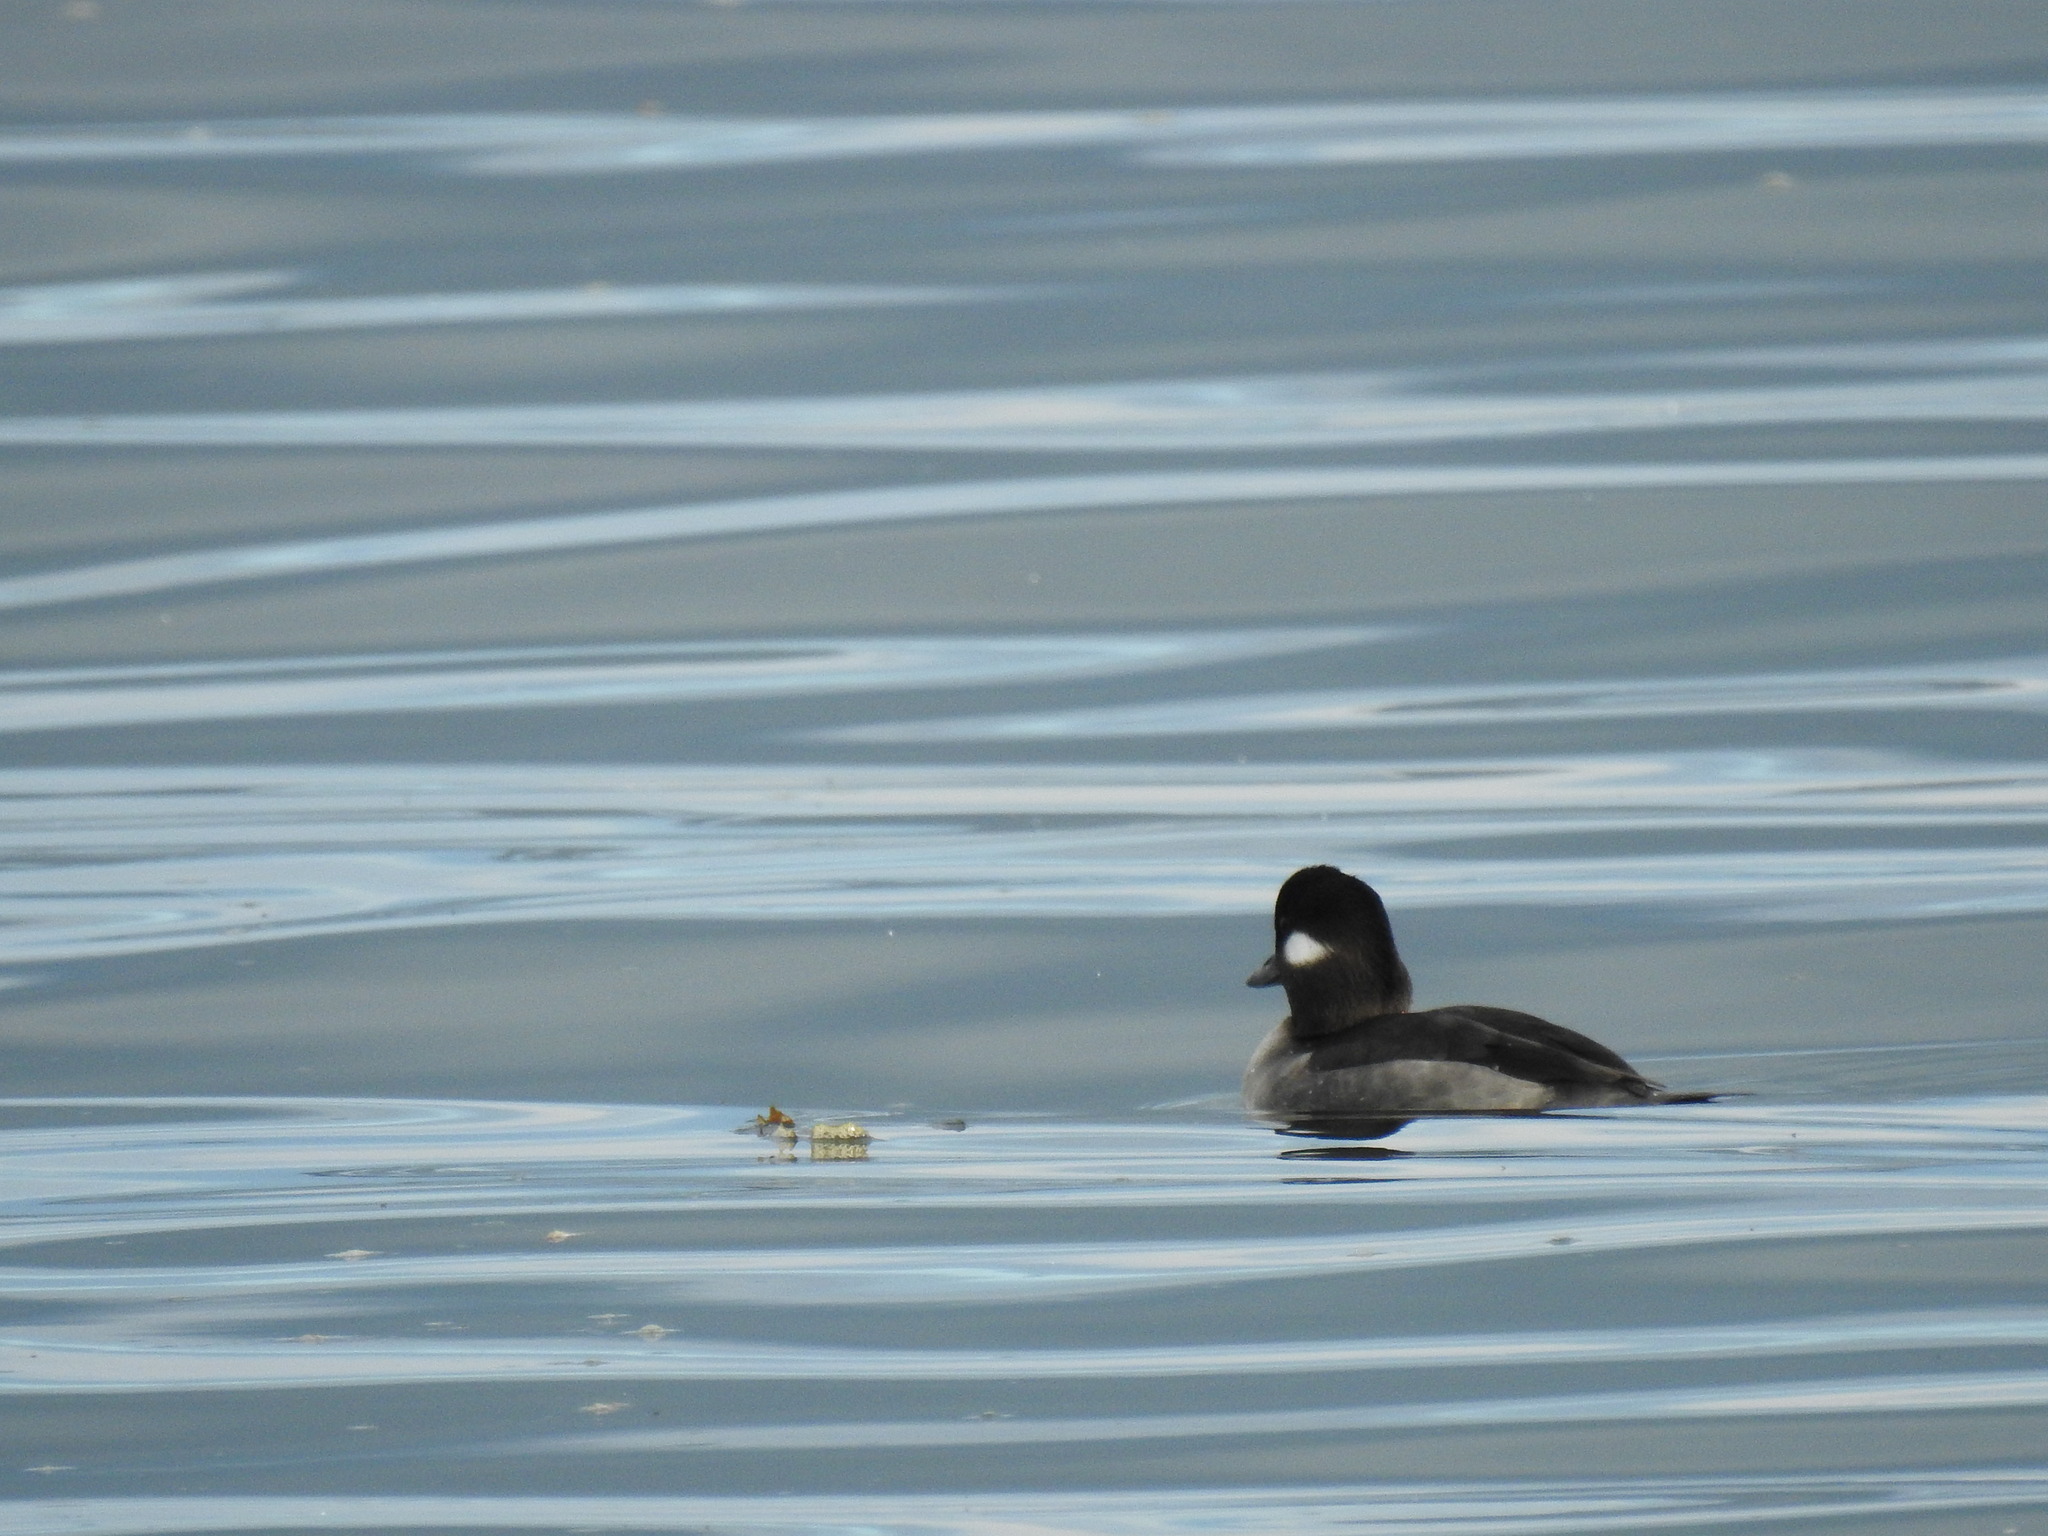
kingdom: Animalia
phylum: Chordata
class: Aves
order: Anseriformes
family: Anatidae
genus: Bucephala
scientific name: Bucephala albeola
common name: Bufflehead
